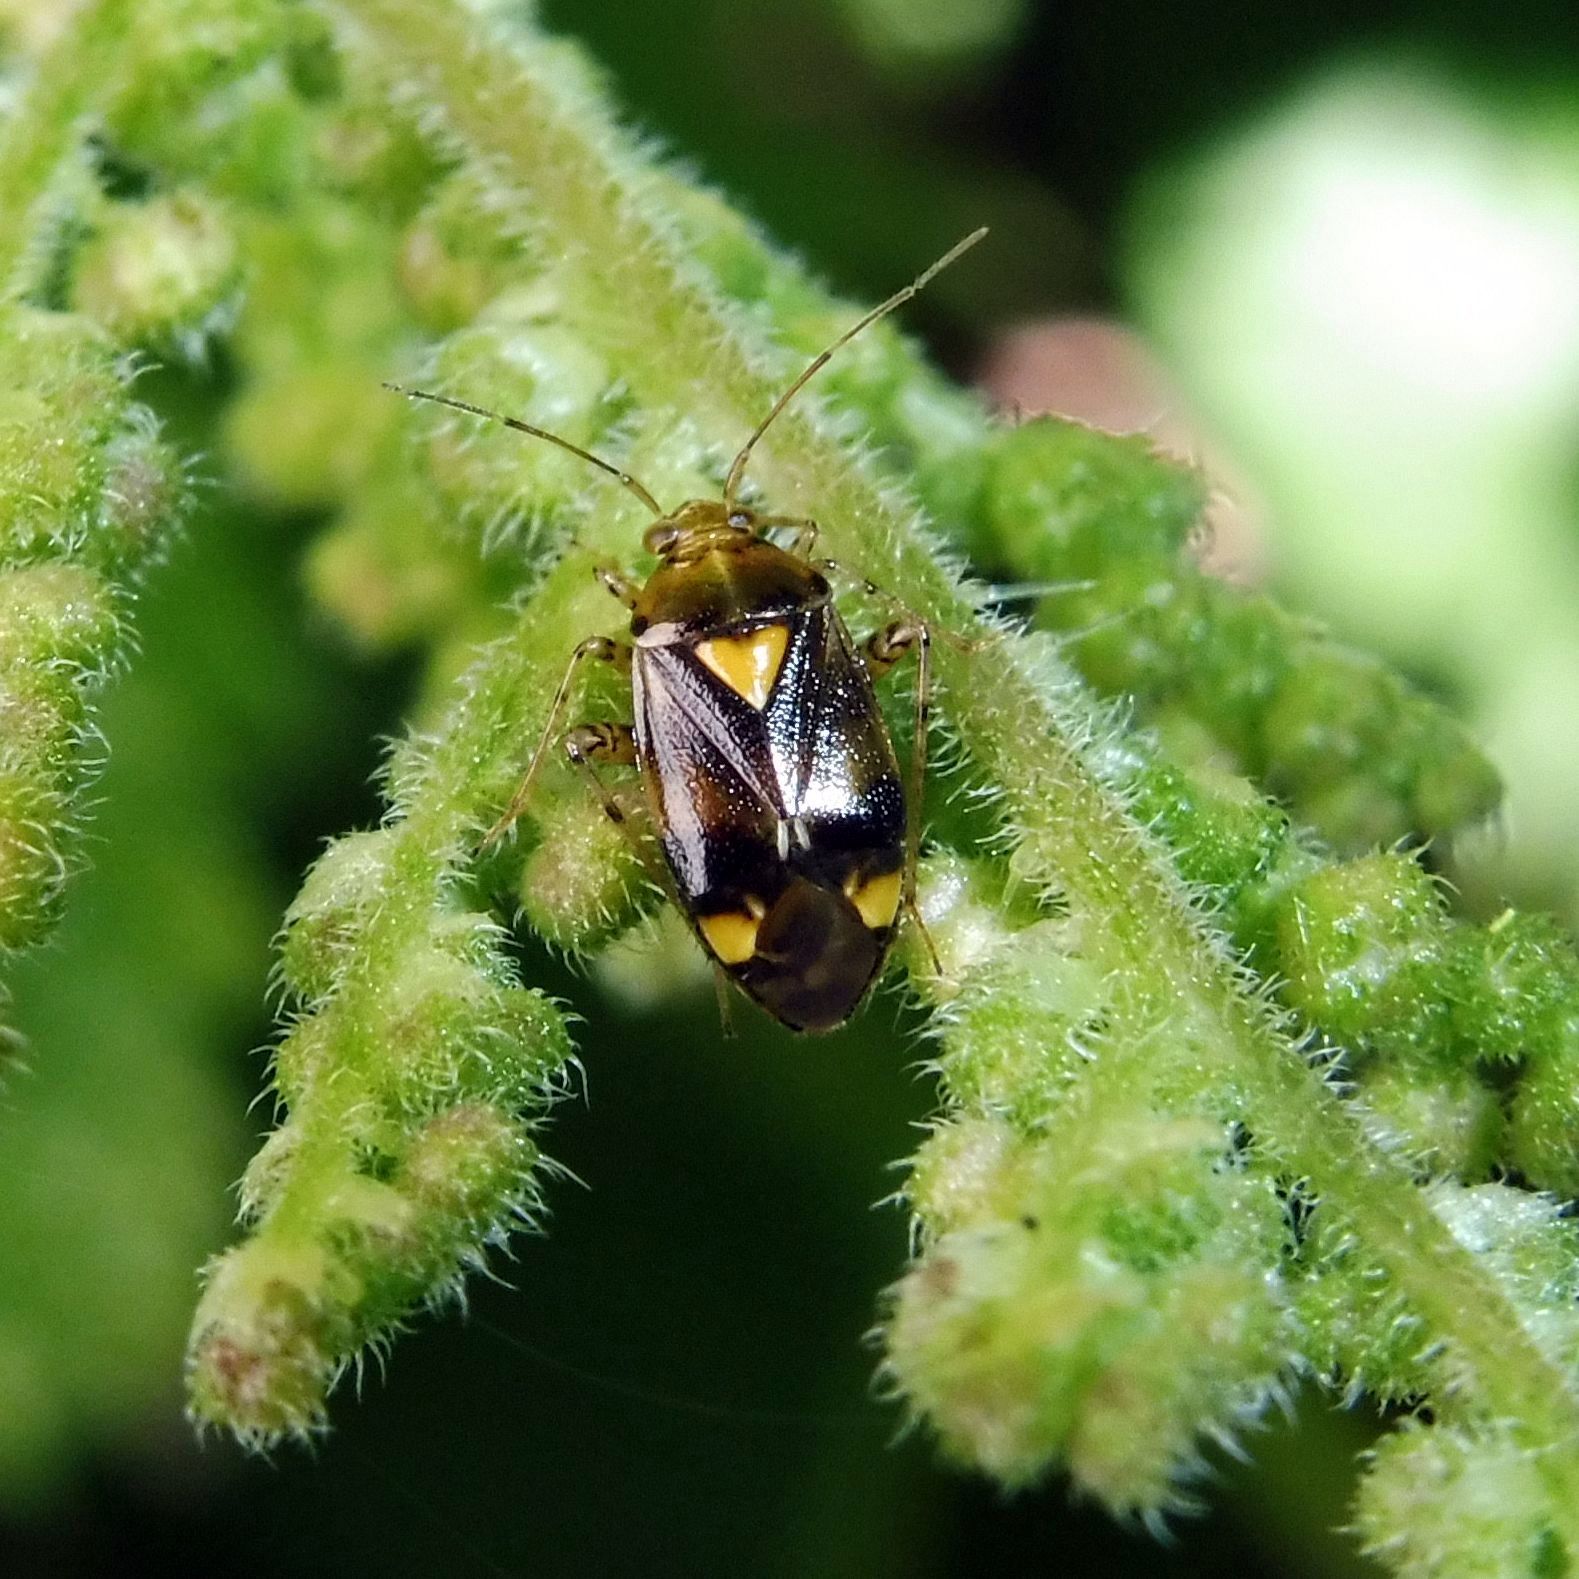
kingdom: Animalia
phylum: Arthropoda
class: Insecta
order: Hemiptera
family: Miridae
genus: Liocoris
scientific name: Liocoris tripustulatus
